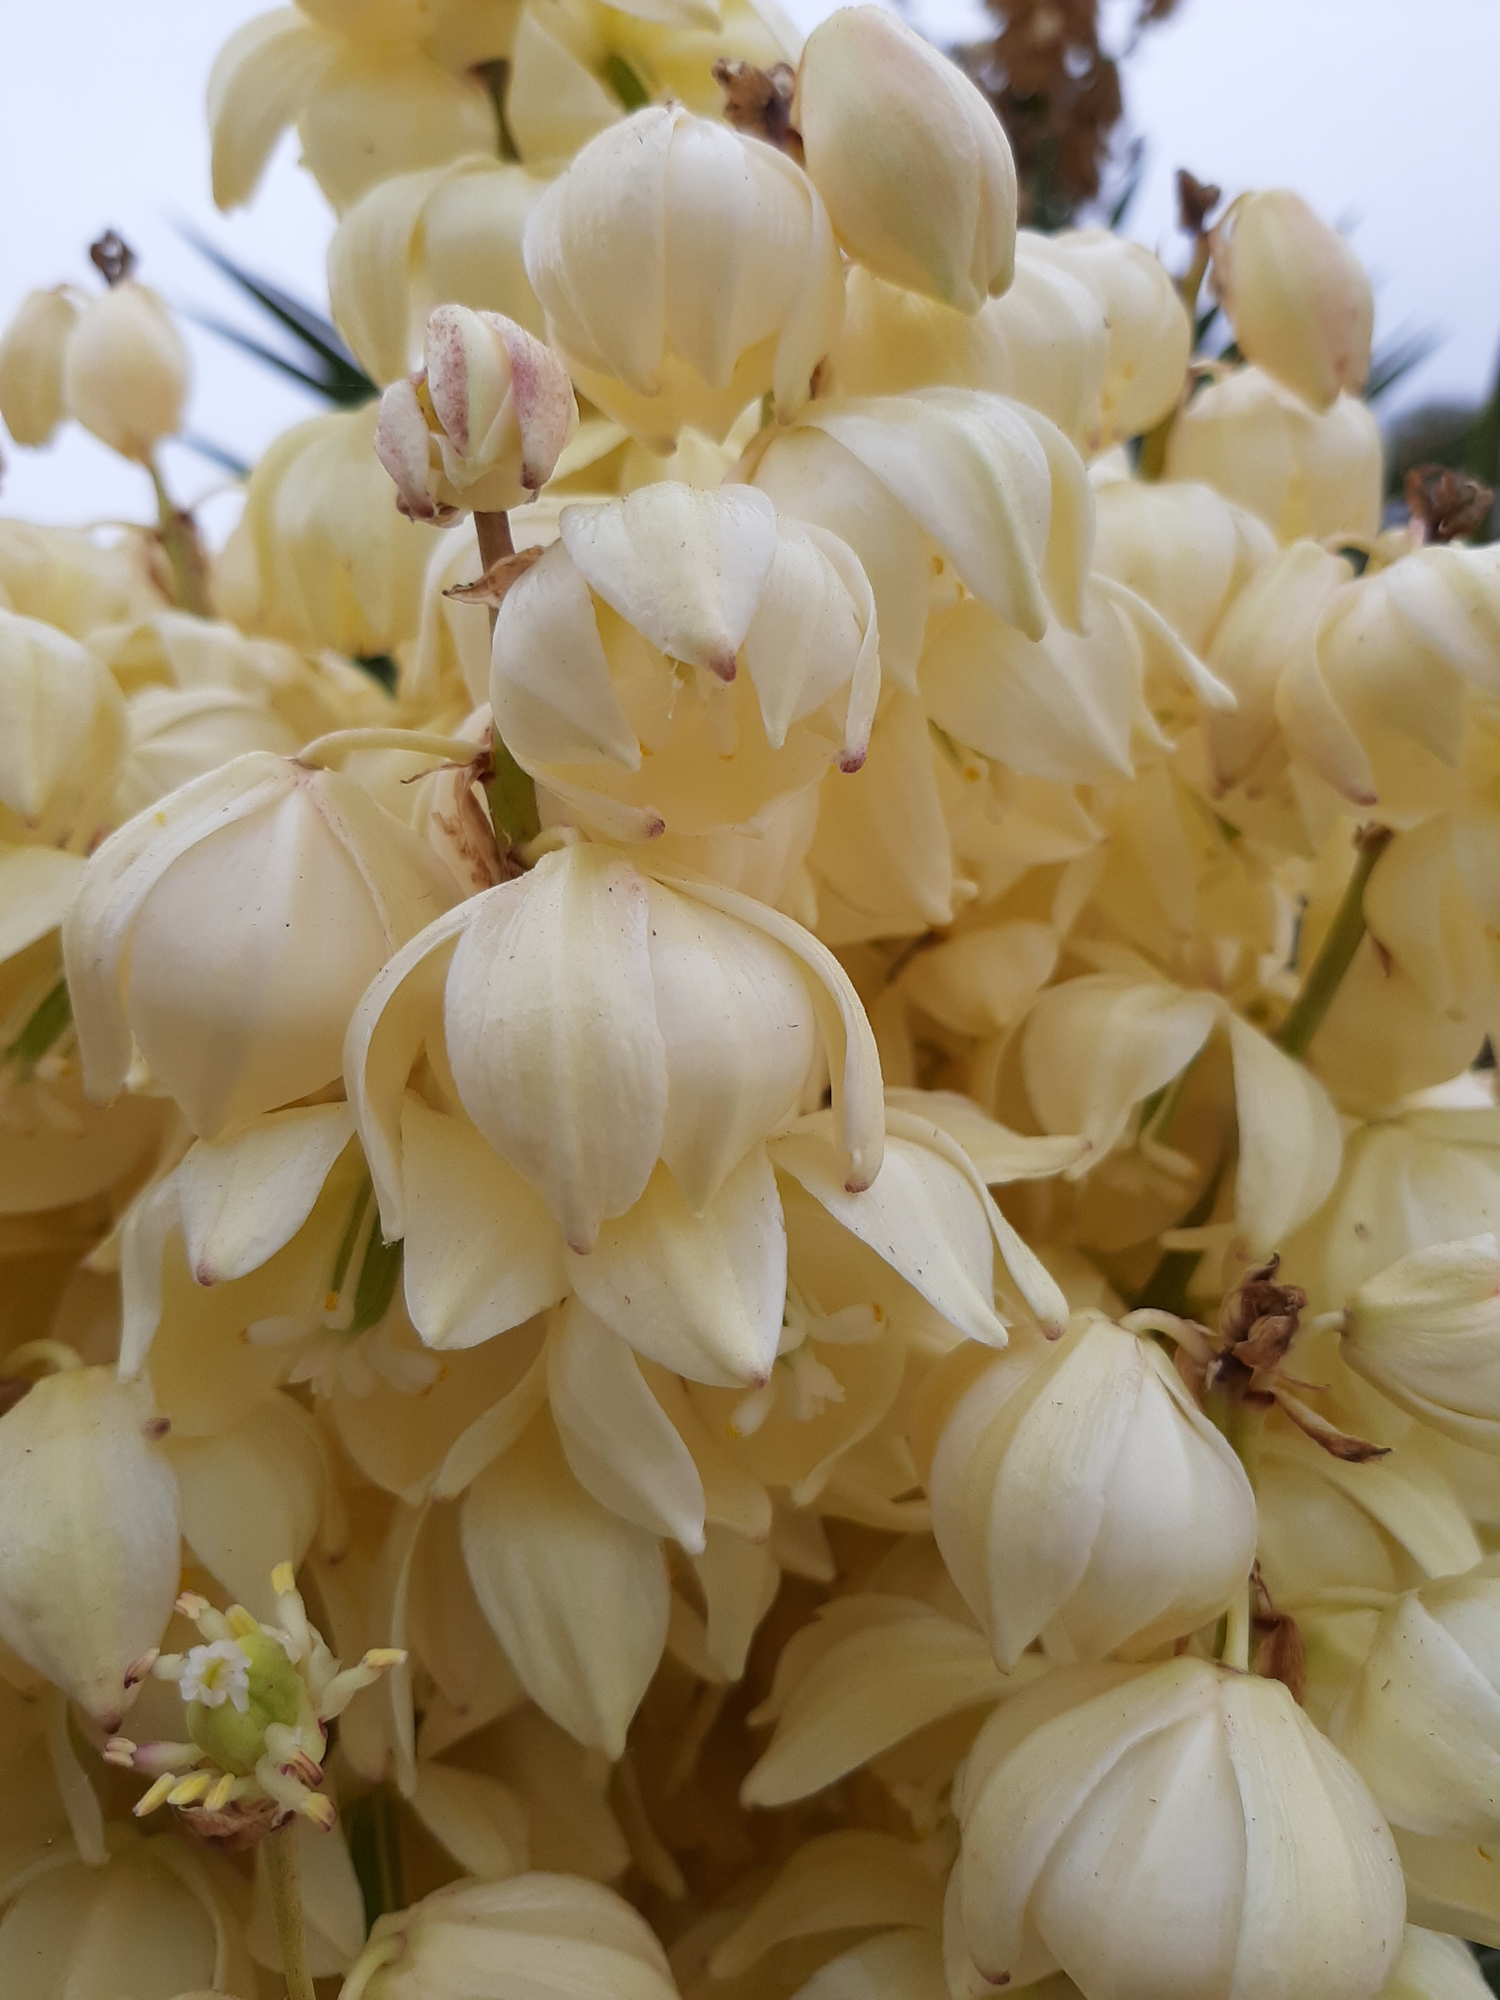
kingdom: Plantae
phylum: Tracheophyta
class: Liliopsida
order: Asparagales
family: Asparagaceae
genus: Yucca
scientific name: Yucca treculiana
